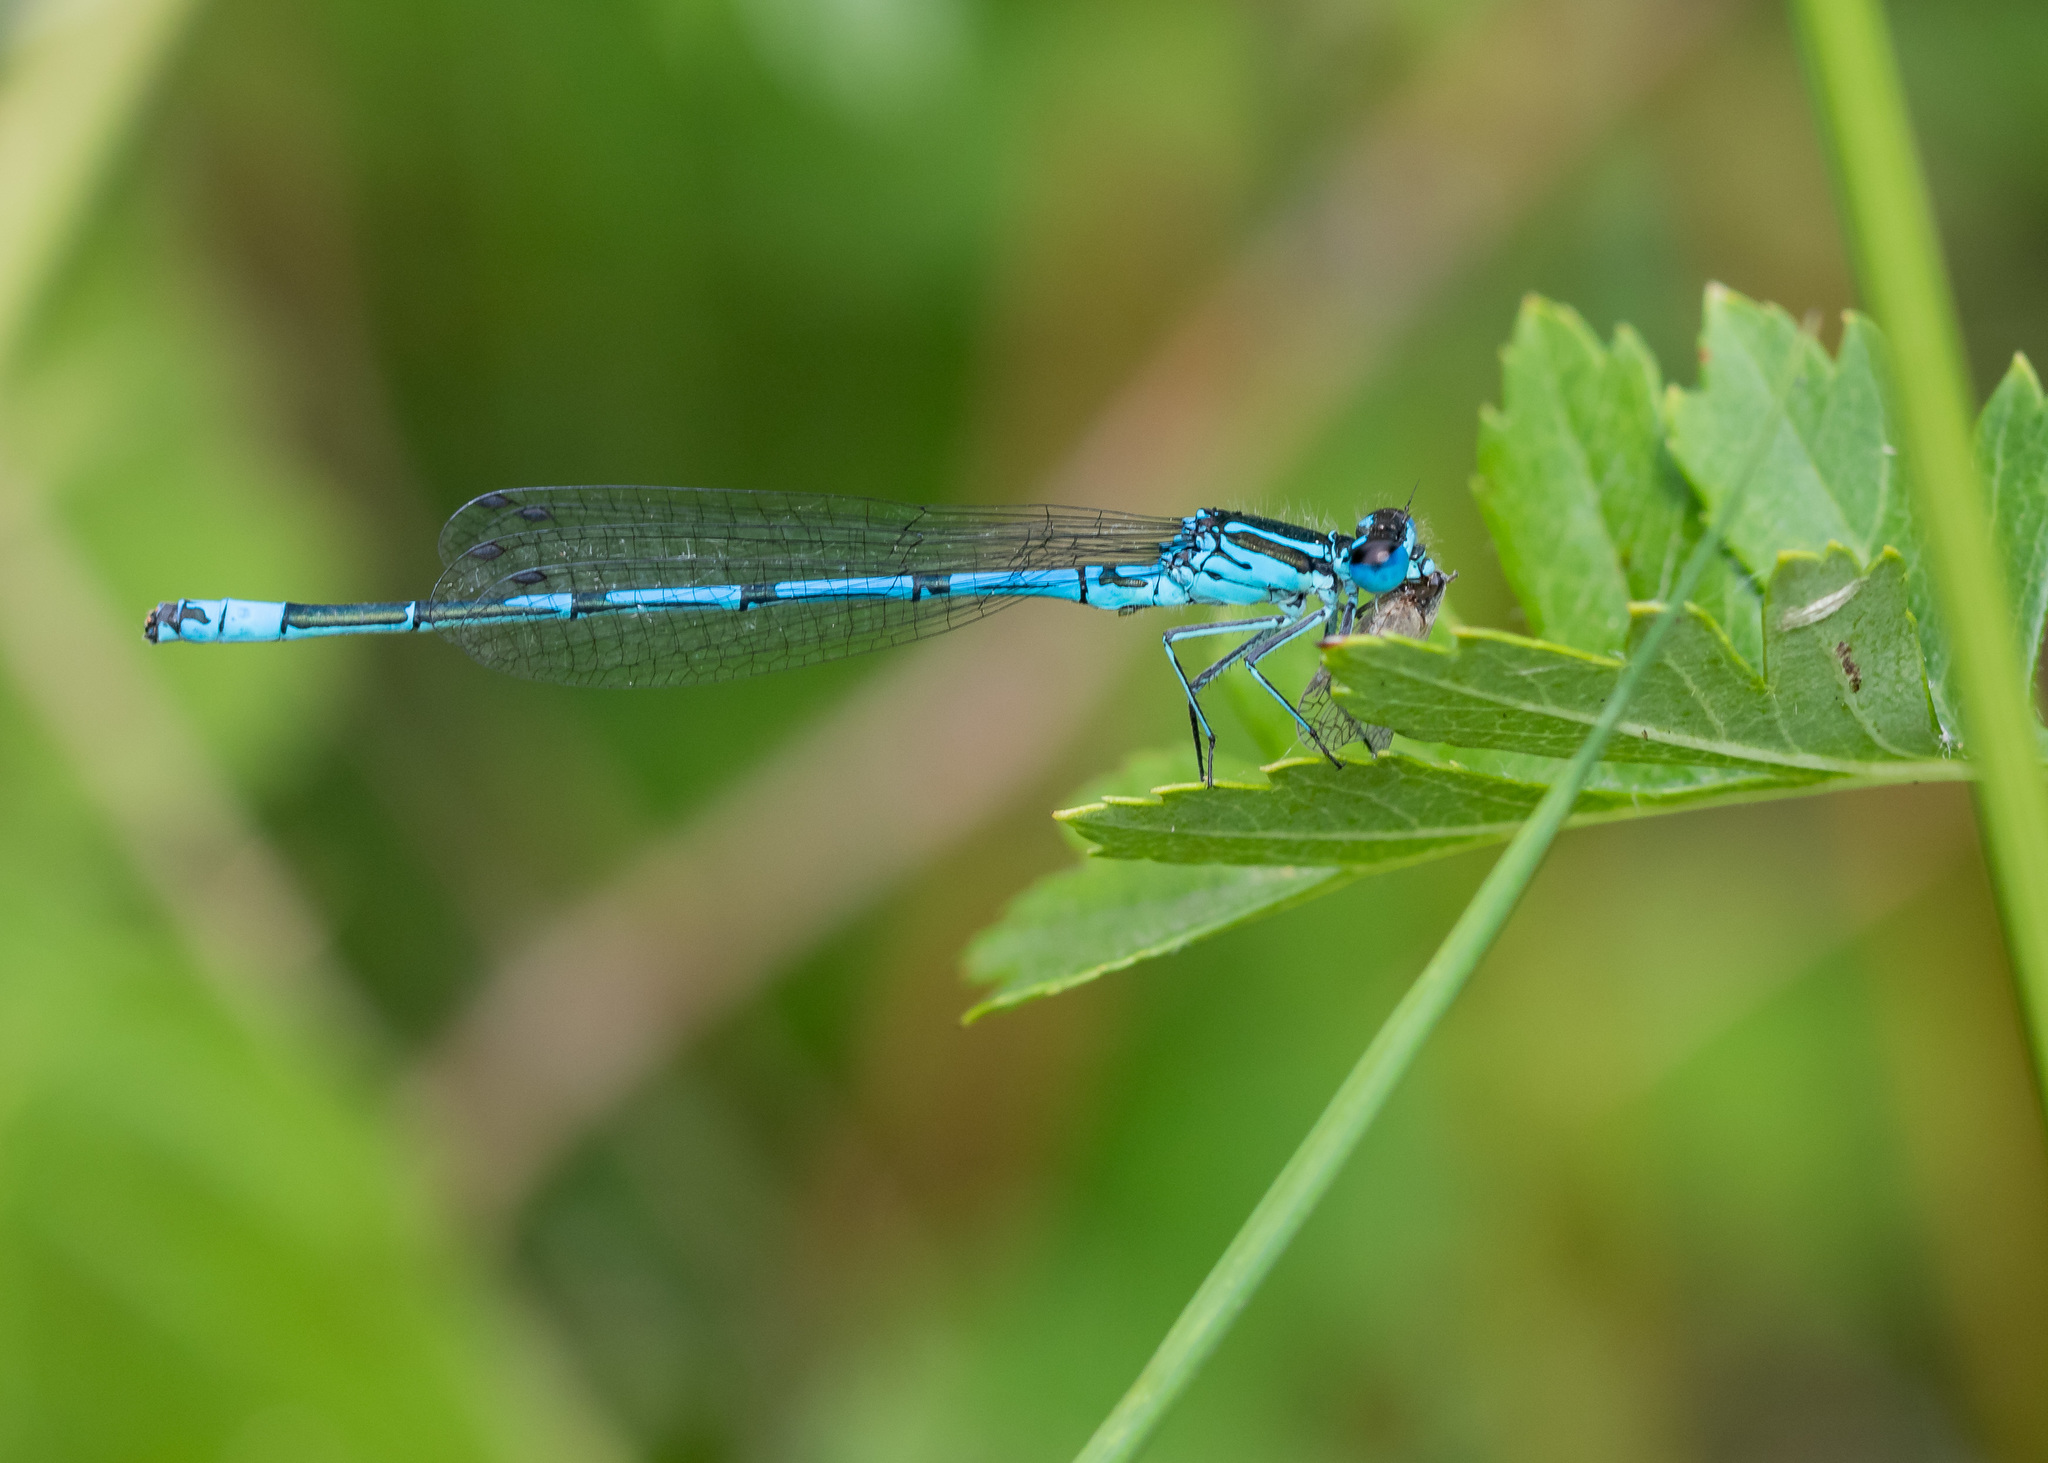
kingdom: Animalia
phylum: Arthropoda
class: Insecta
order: Odonata
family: Coenagrionidae
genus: Coenagrion
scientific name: Coenagrion puella
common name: Azure damselfly
